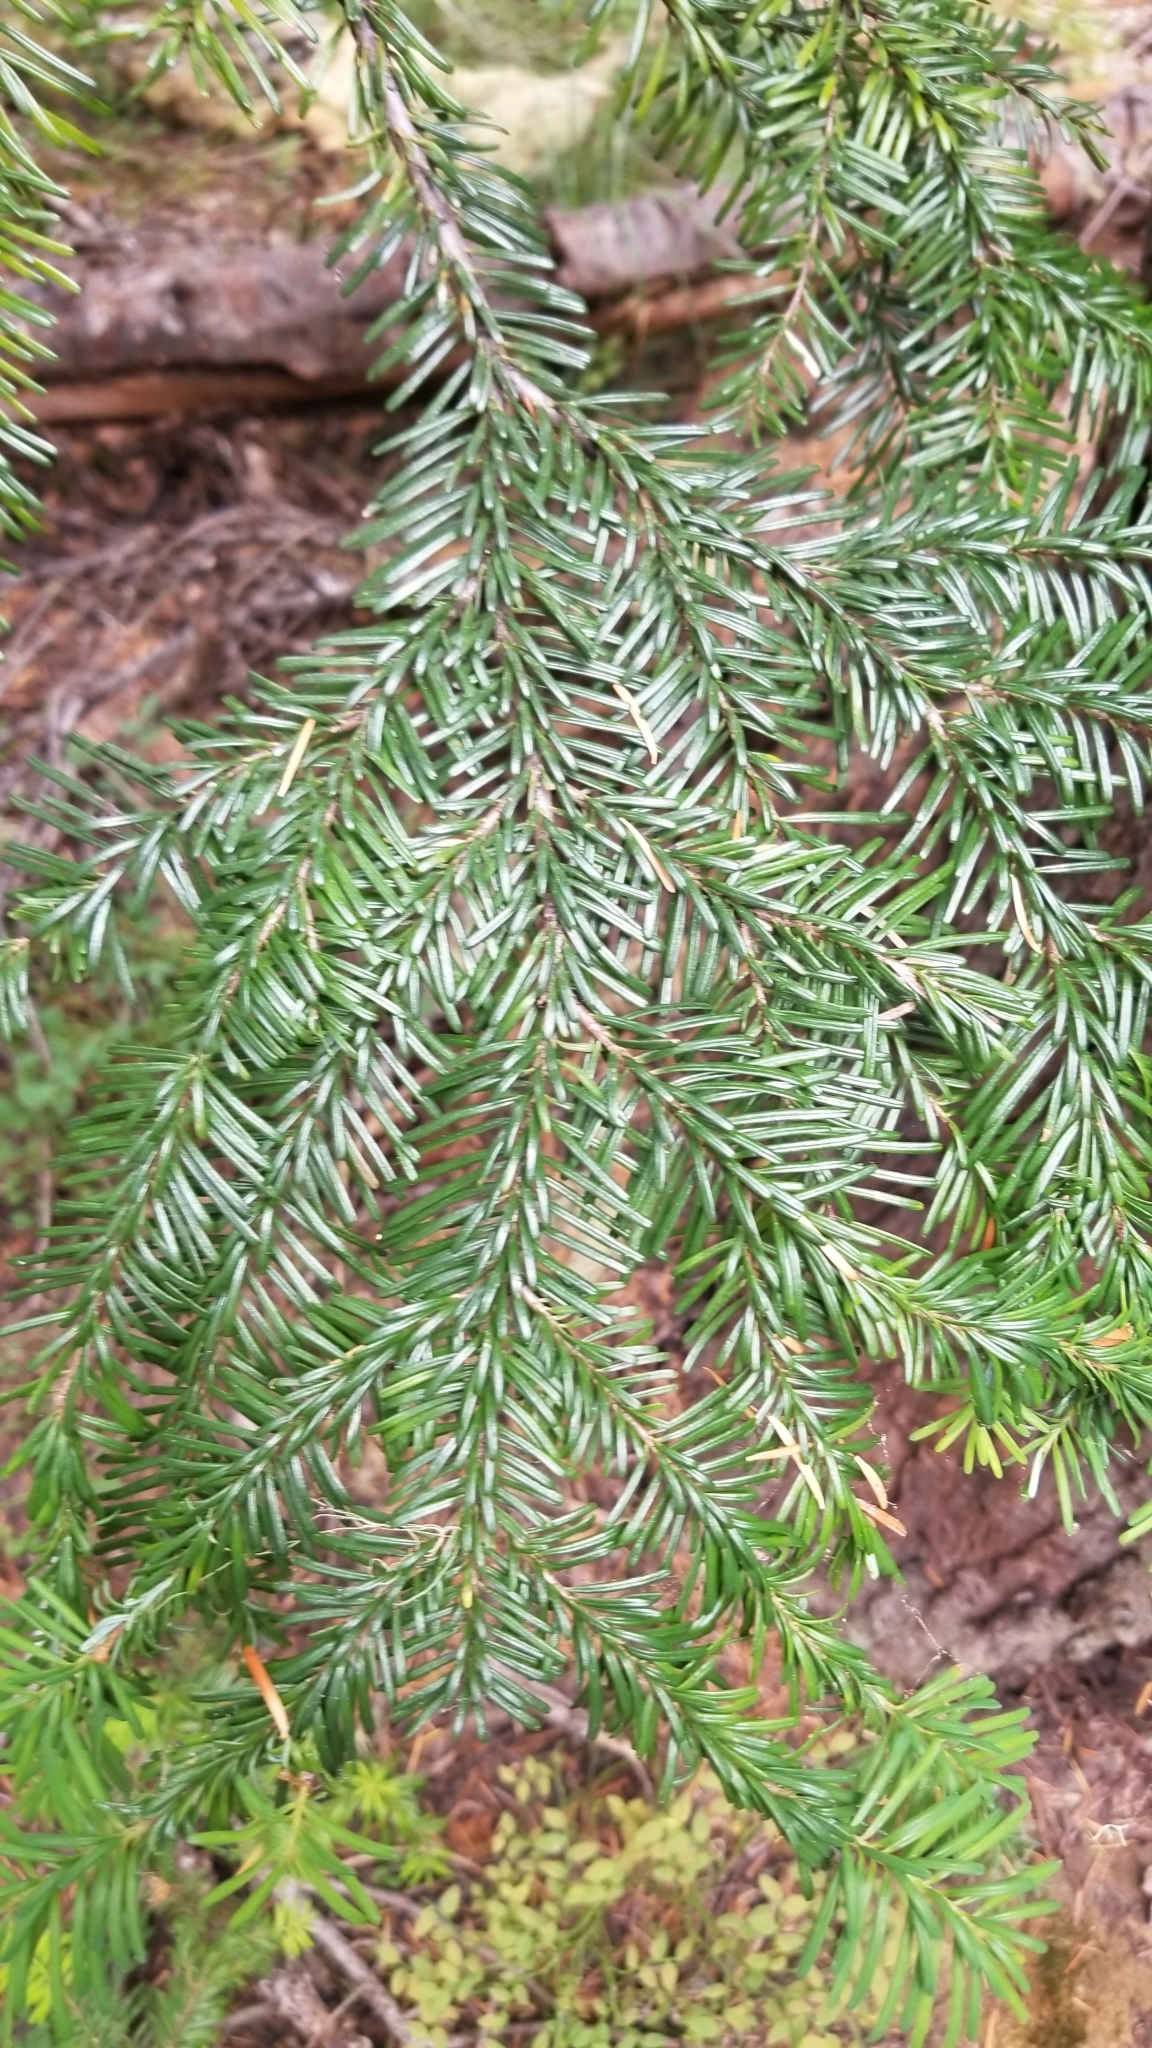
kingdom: Plantae
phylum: Tracheophyta
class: Pinopsida
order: Pinales
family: Pinaceae
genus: Abies
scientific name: Abies amabilis
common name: Pacific silver fir
